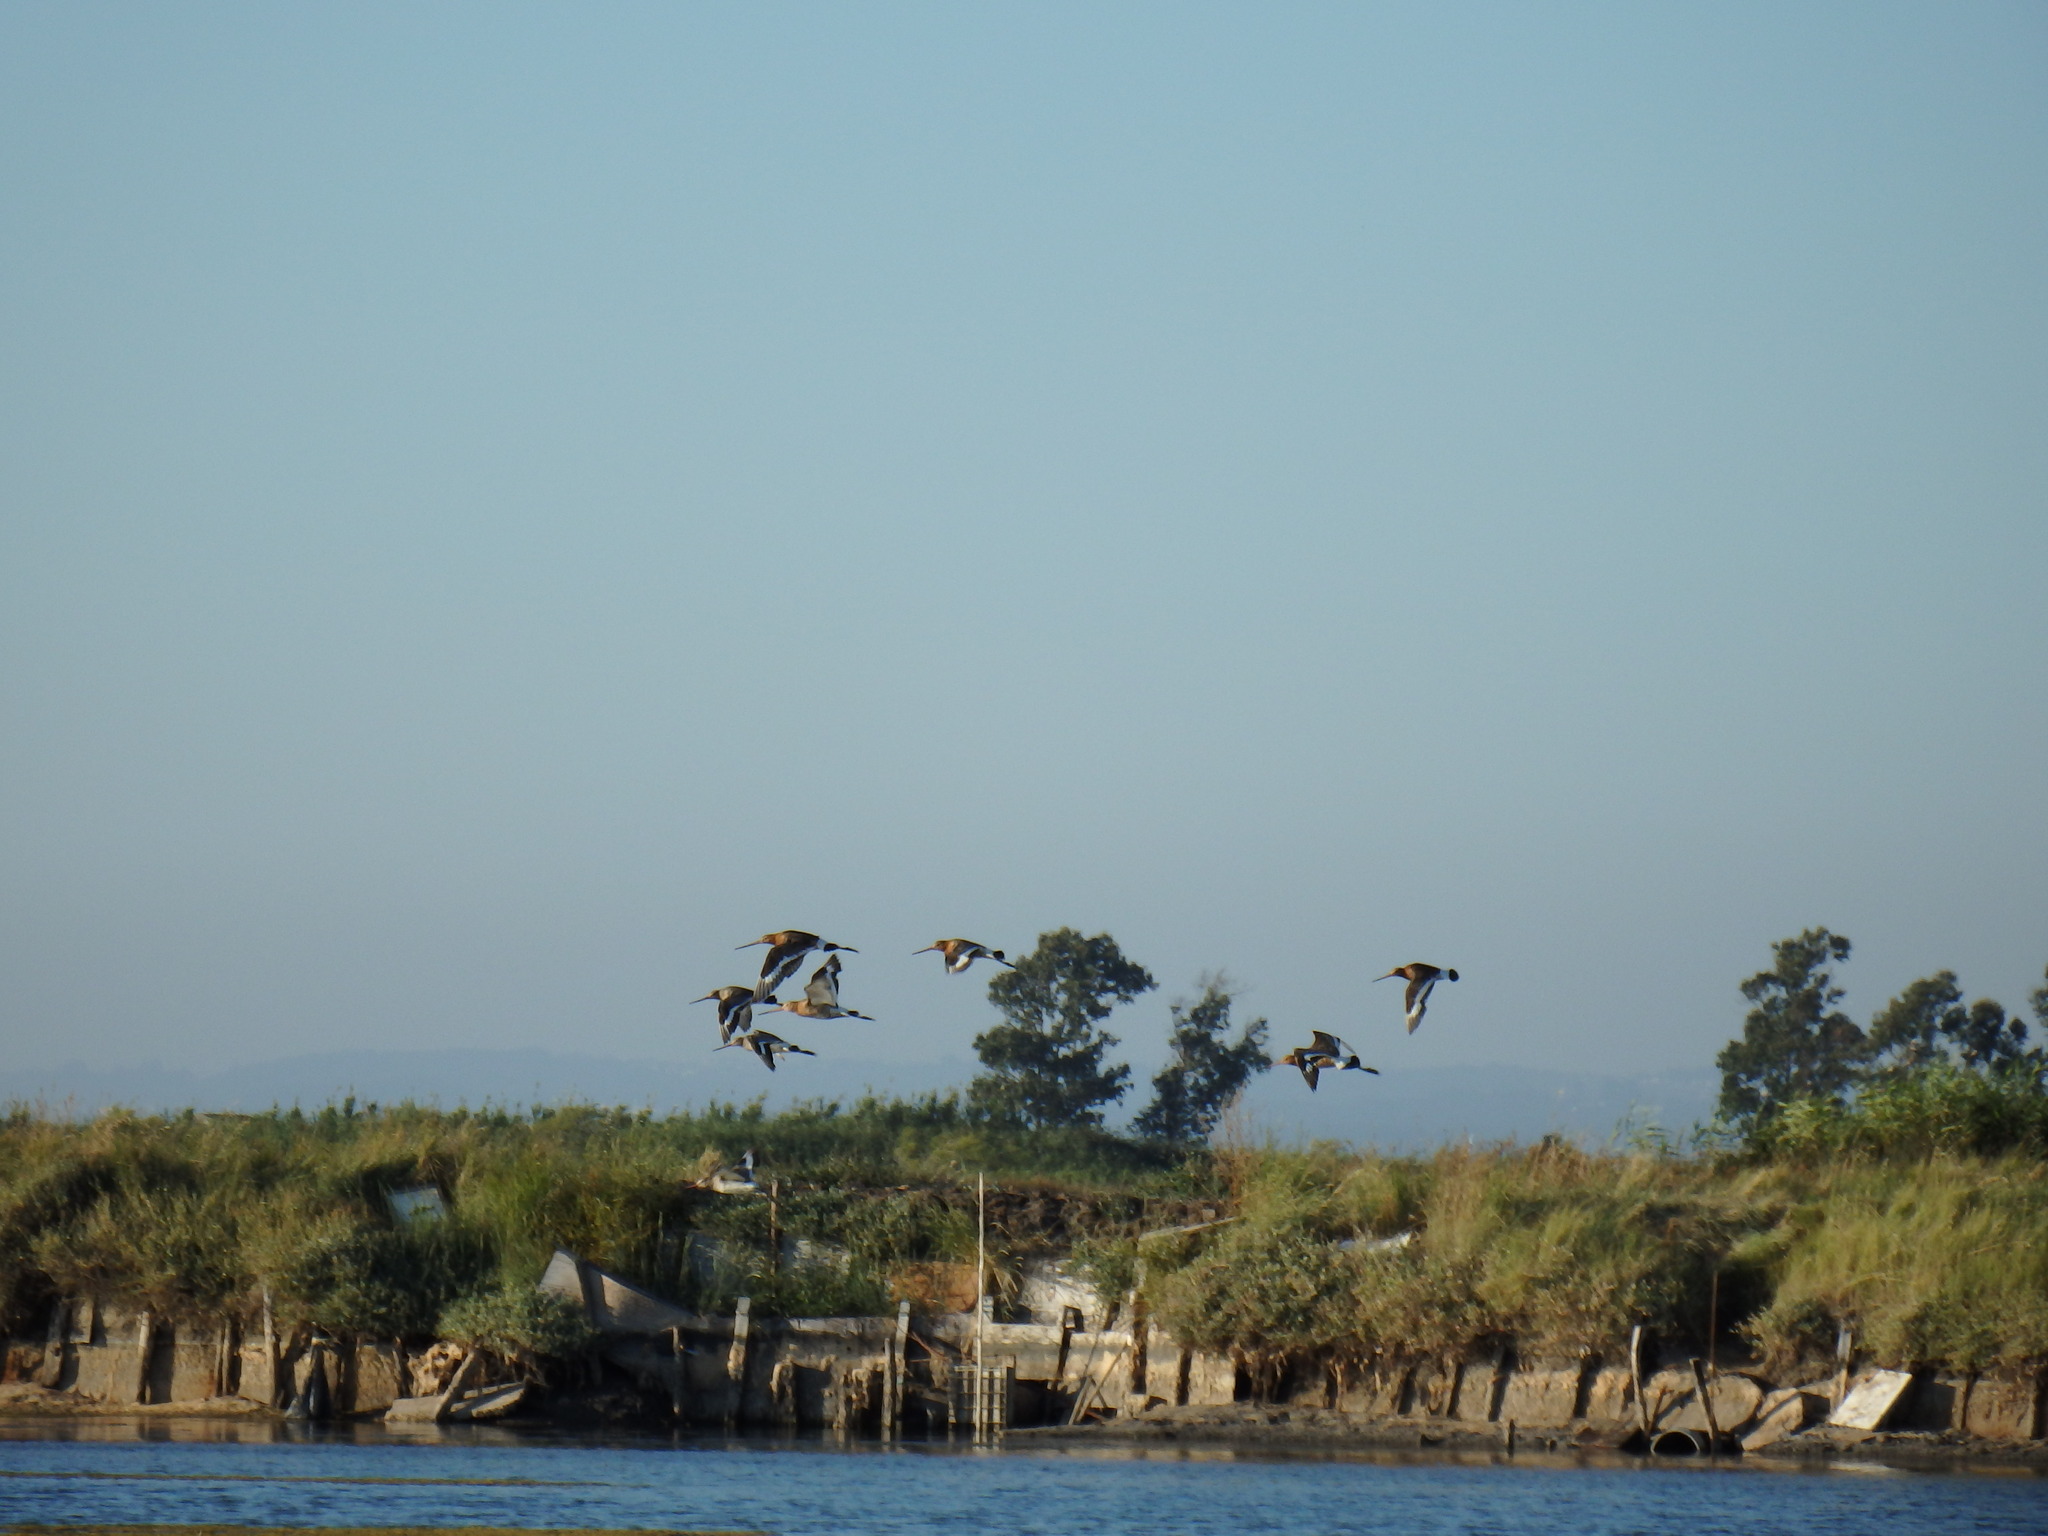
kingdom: Animalia
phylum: Chordata
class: Aves
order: Charadriiformes
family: Scolopacidae
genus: Limosa
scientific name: Limosa limosa
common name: Black-tailed godwit
